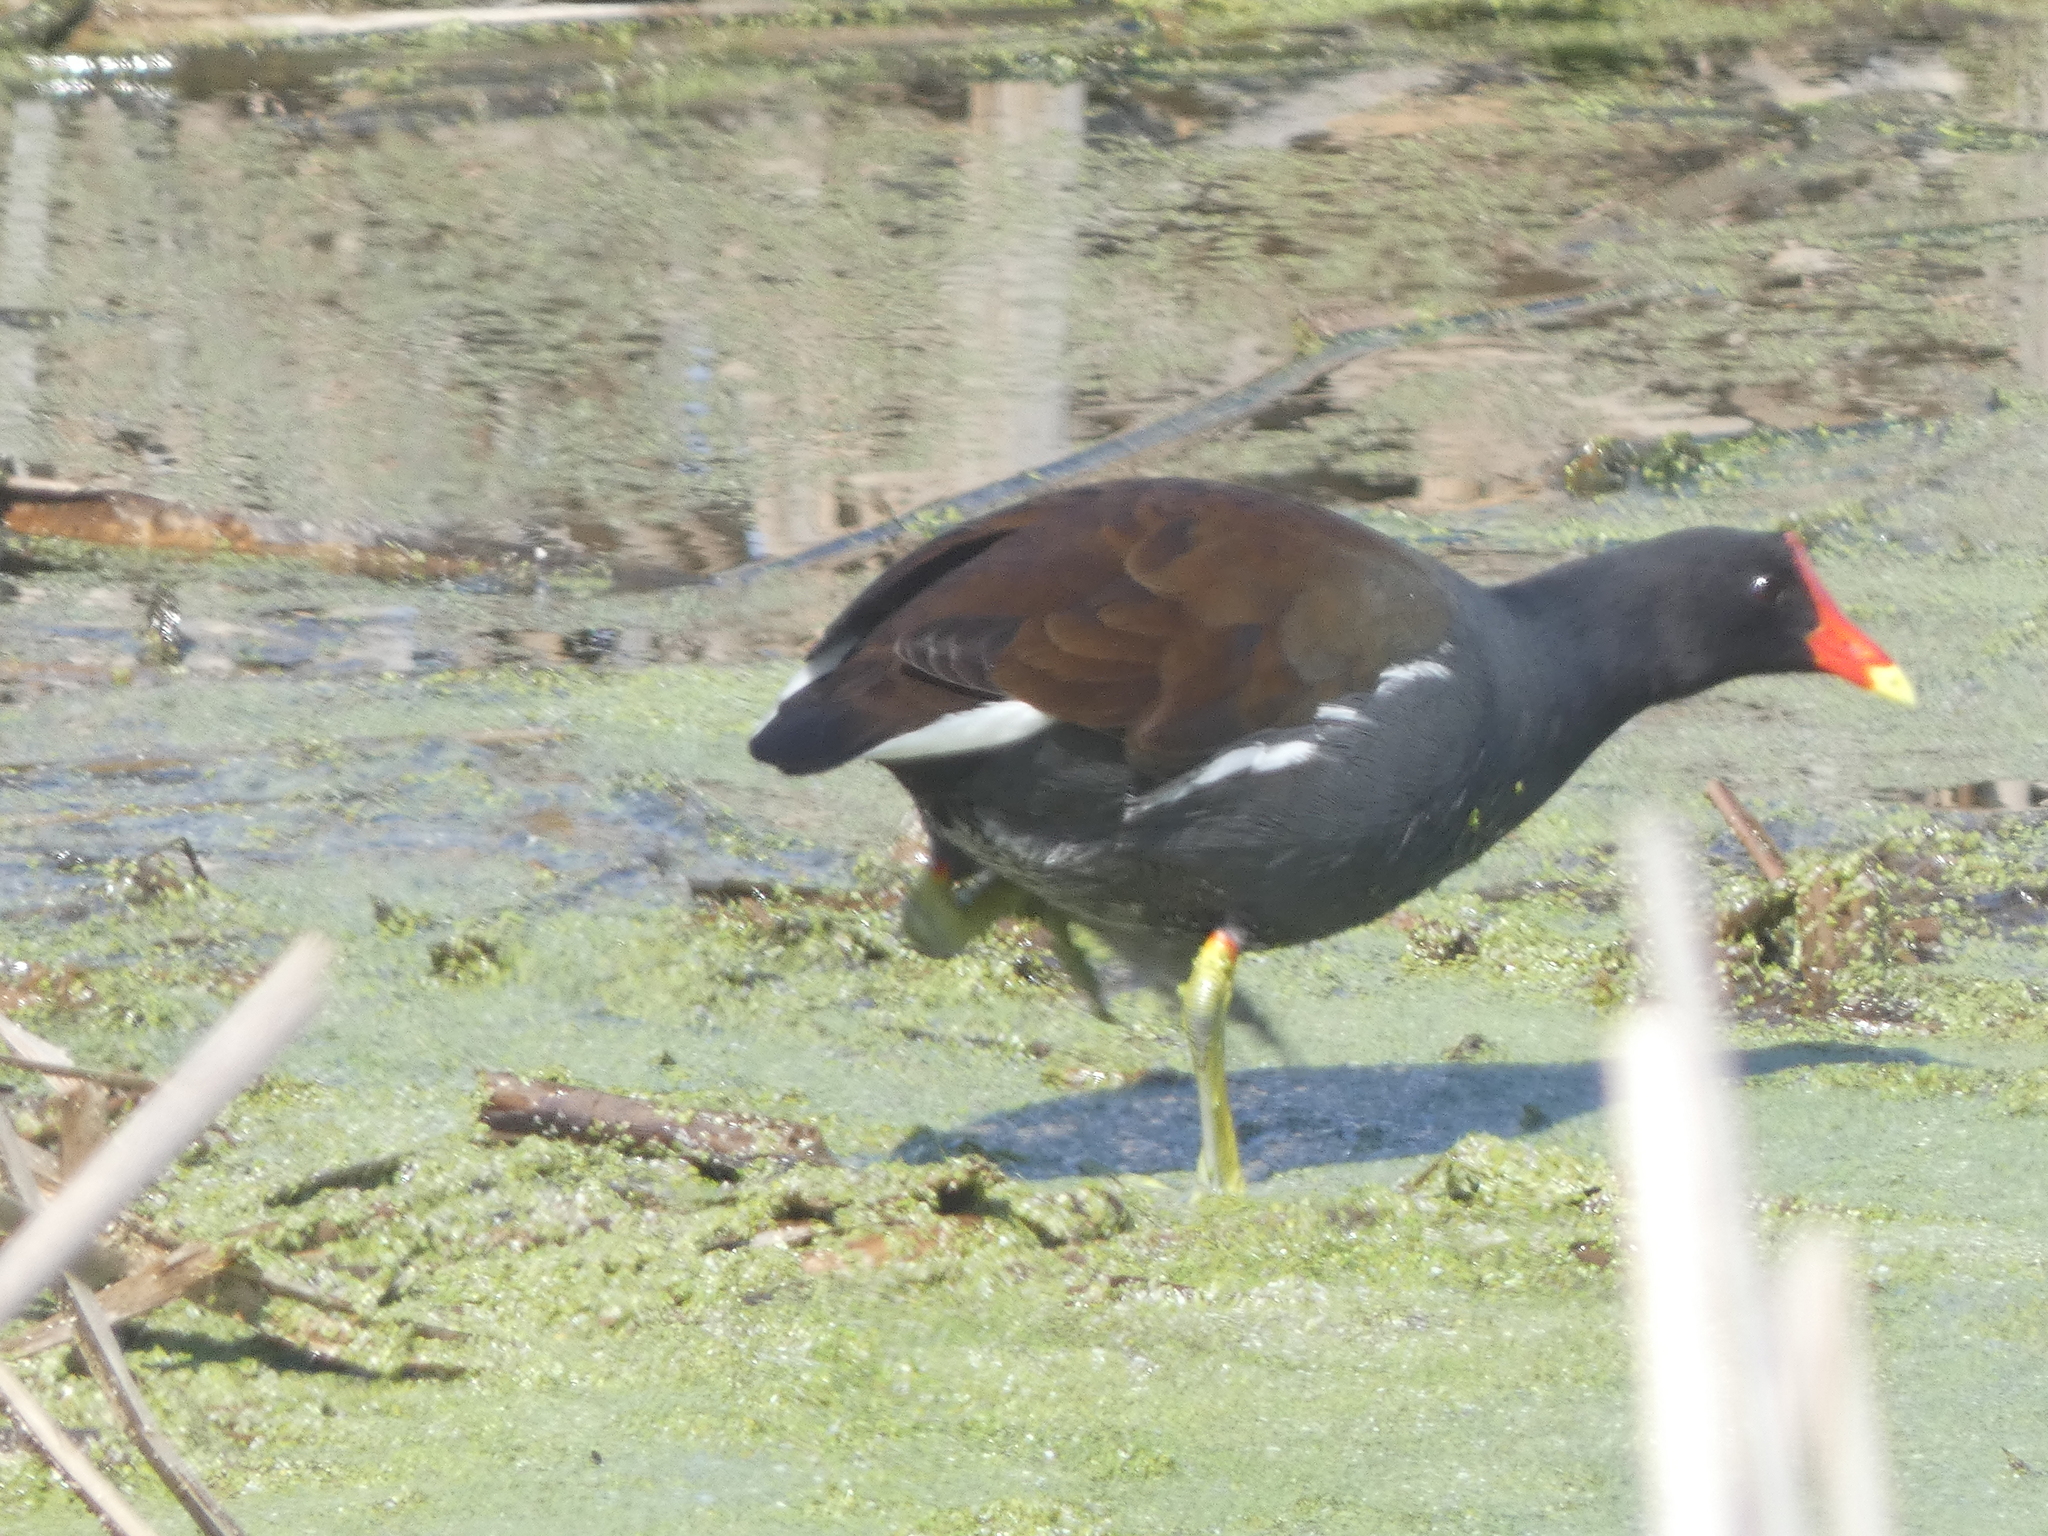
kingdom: Animalia
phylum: Chordata
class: Aves
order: Gruiformes
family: Rallidae
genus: Gallinula
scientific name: Gallinula chloropus
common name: Common moorhen
